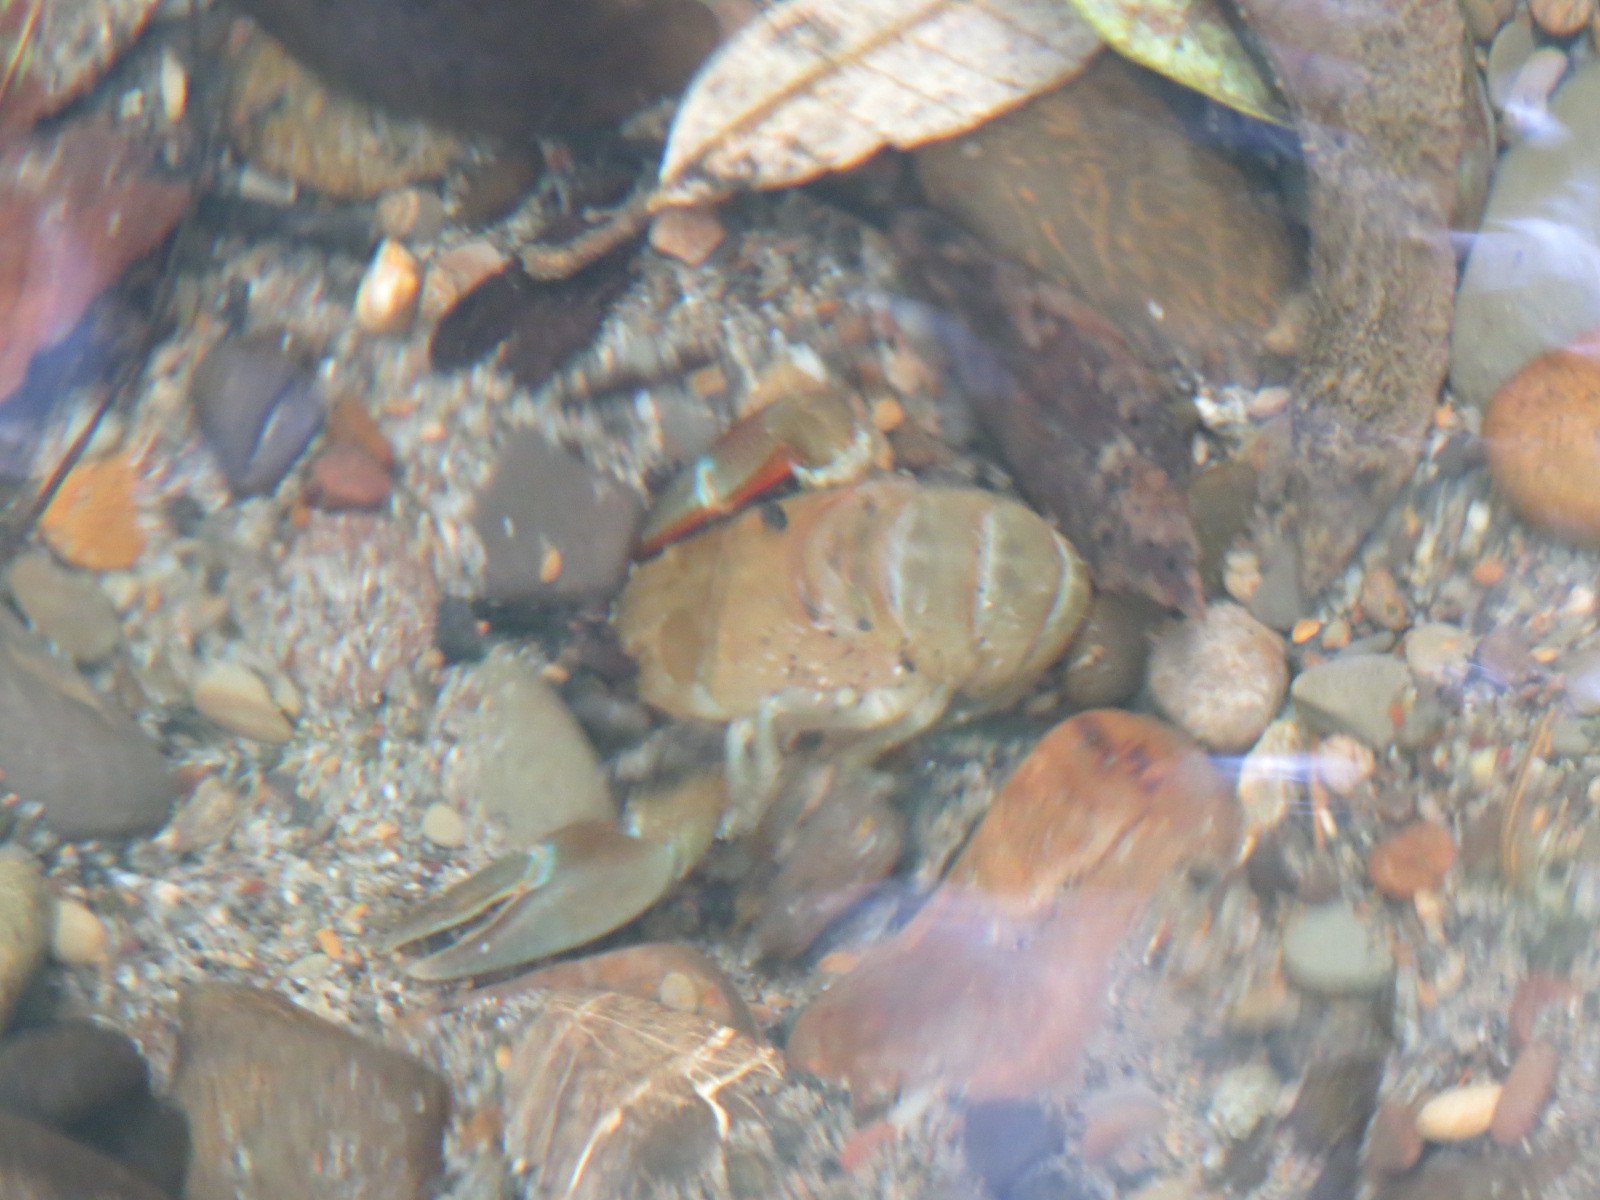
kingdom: Animalia
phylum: Arthropoda
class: Malacostraca
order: Decapoda
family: Astacidae
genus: Pacifastacus
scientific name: Pacifastacus leniusculus
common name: Signal crayfish
